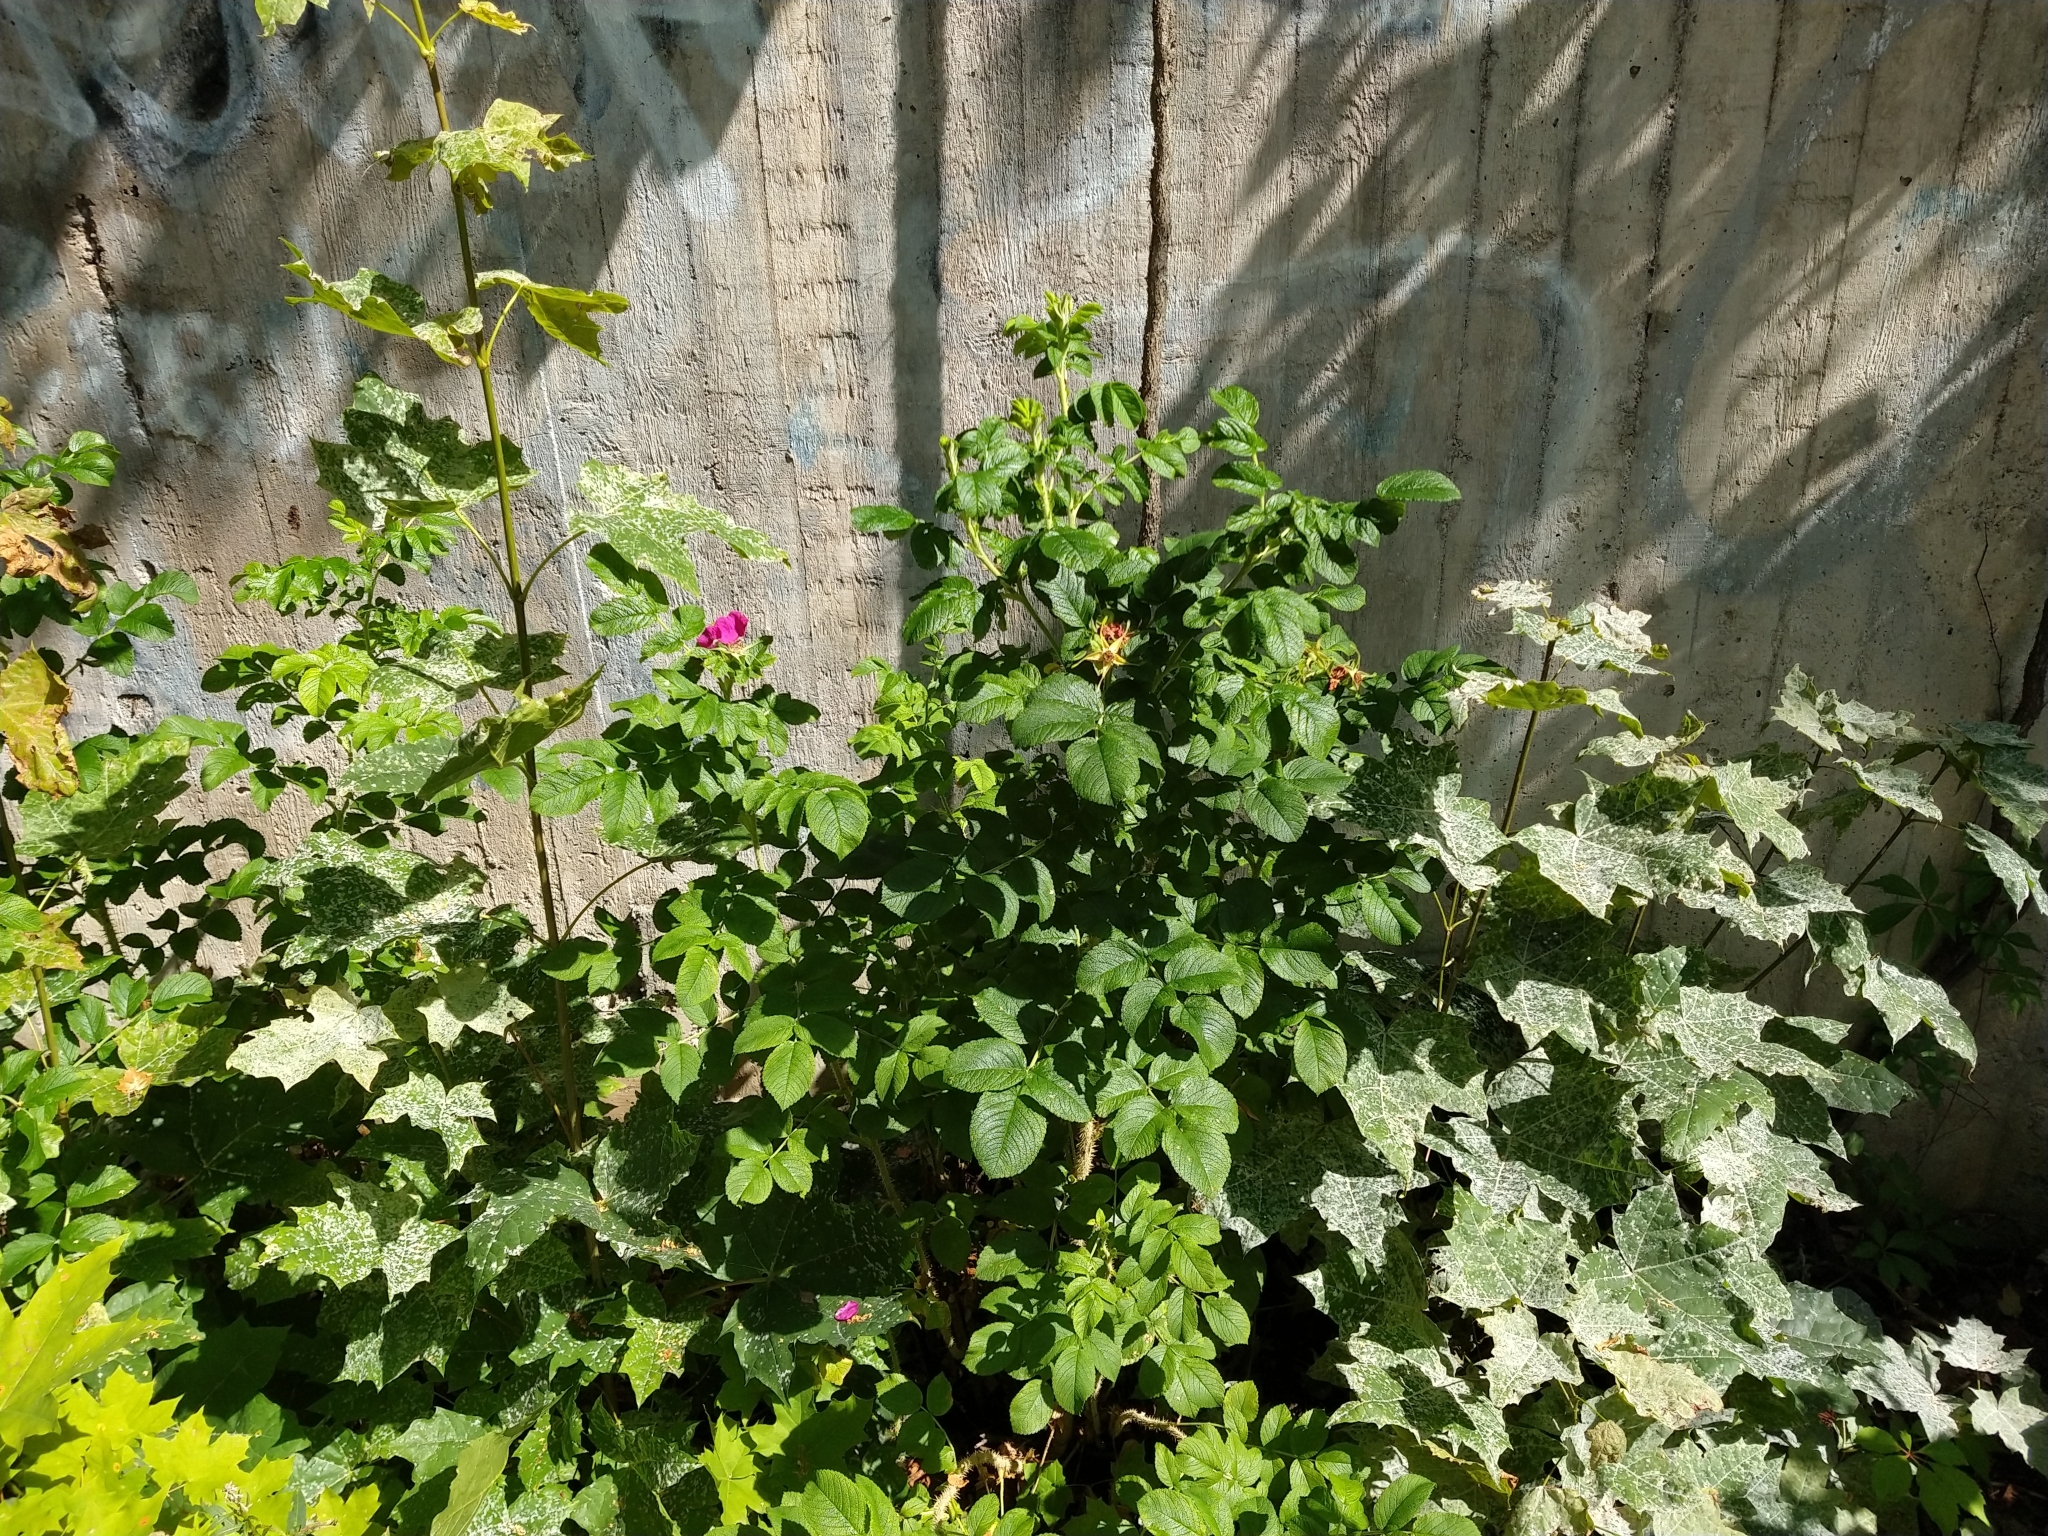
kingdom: Plantae
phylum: Tracheophyta
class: Magnoliopsida
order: Rosales
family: Rosaceae
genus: Rosa
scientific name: Rosa rugosa
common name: Japanese rose
